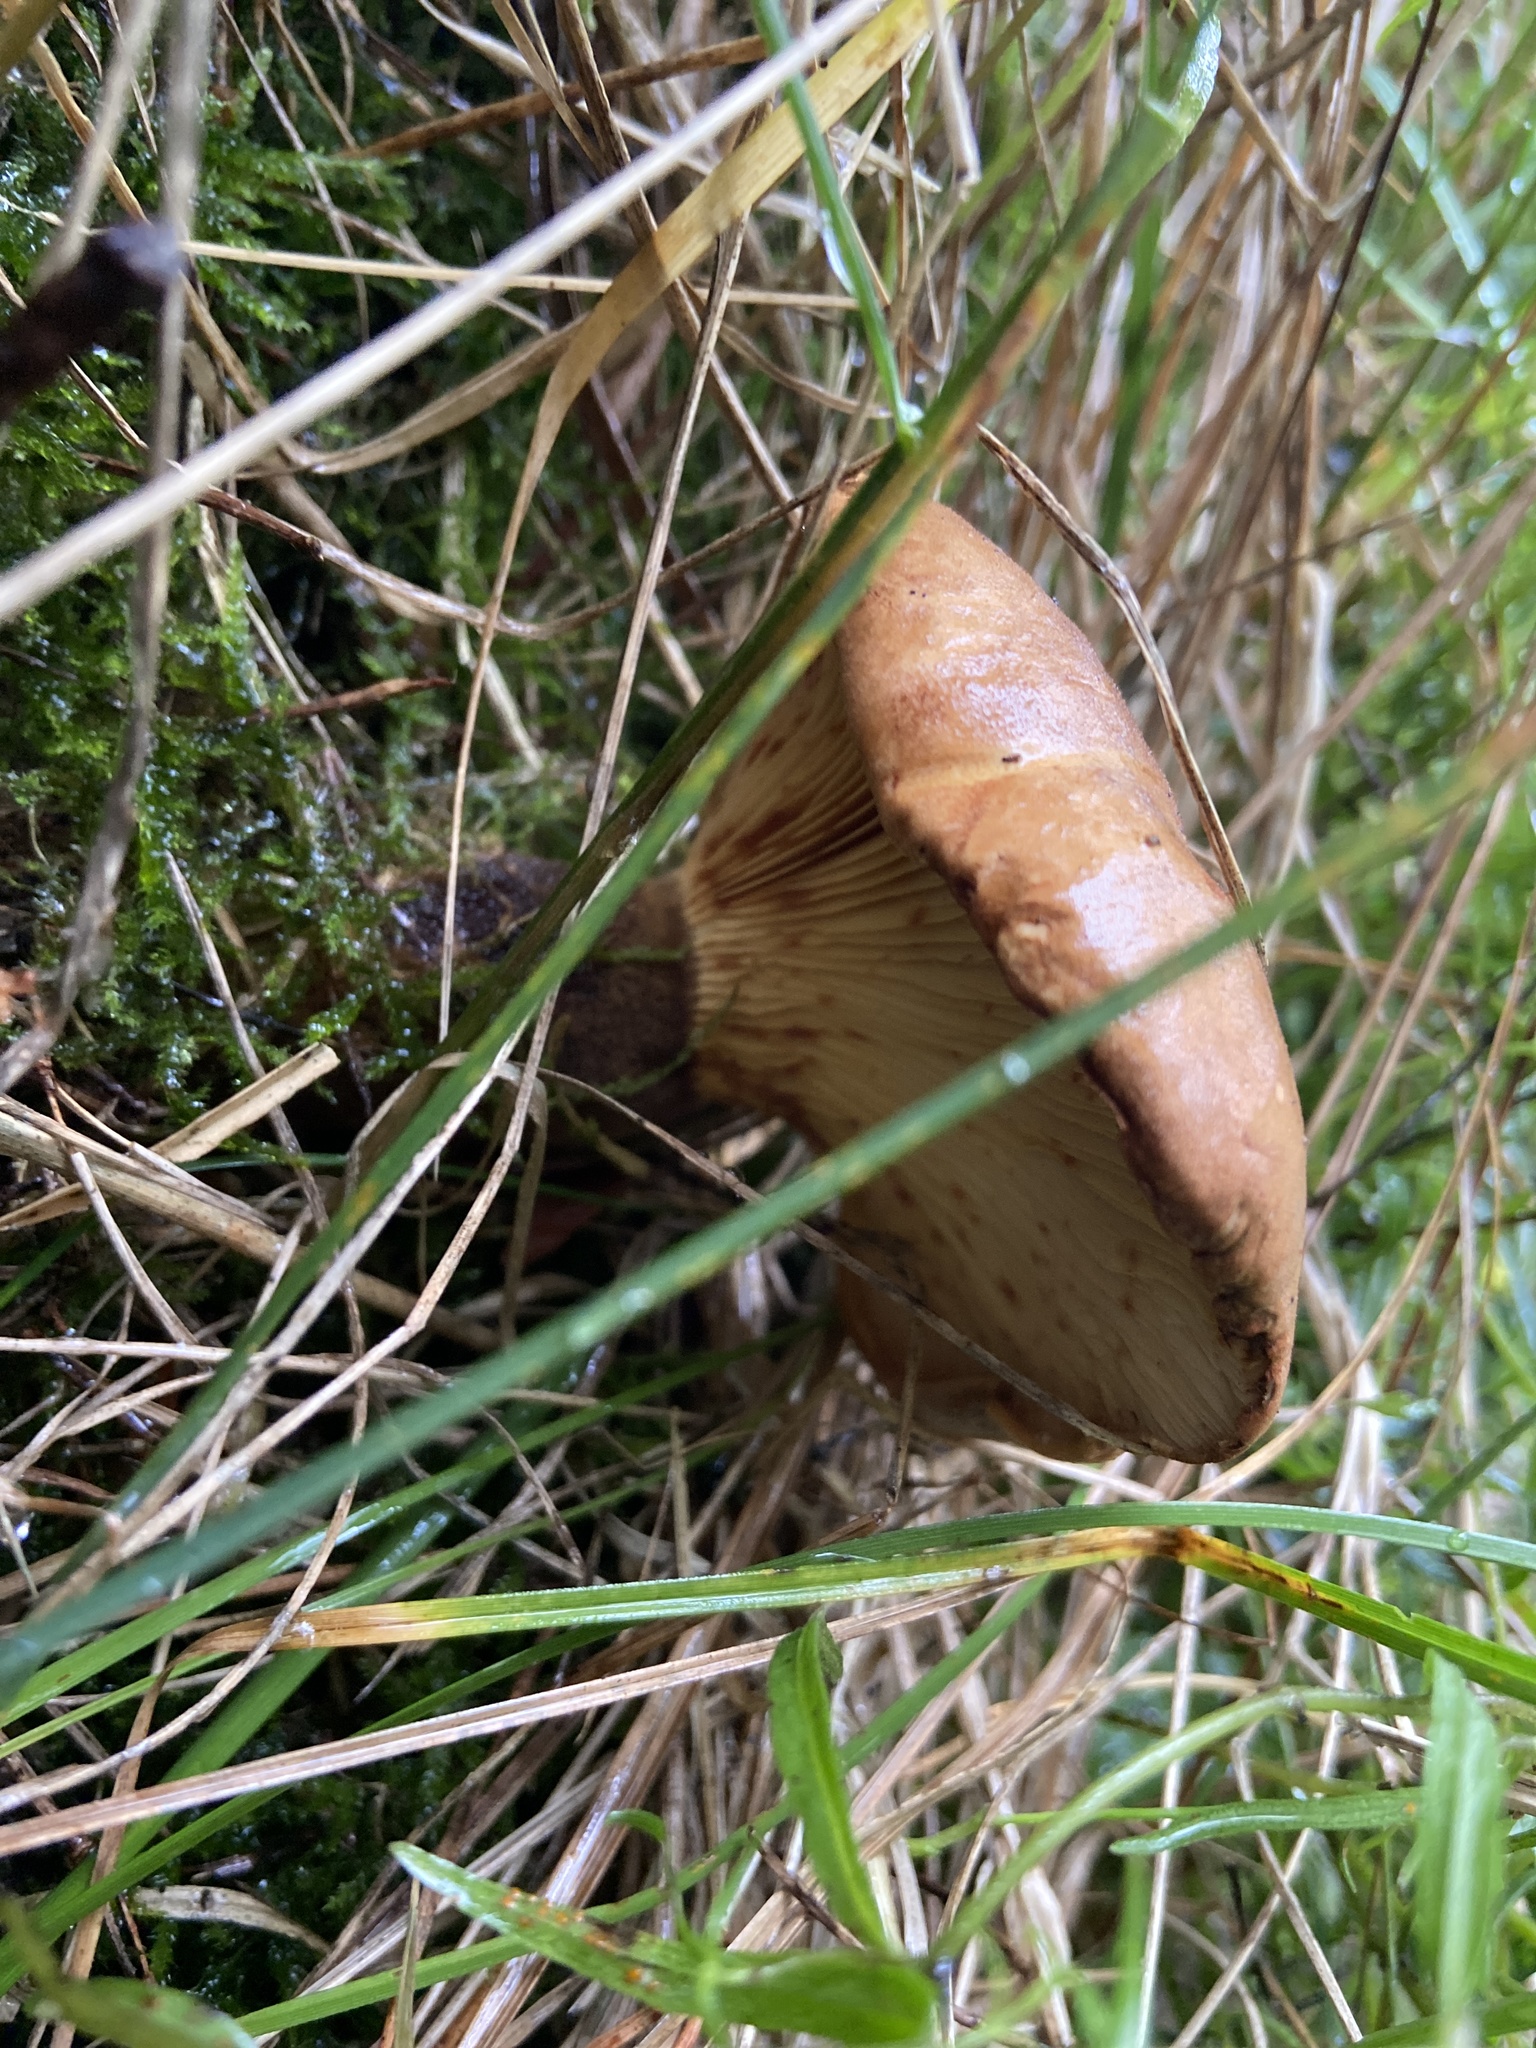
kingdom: Fungi
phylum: Basidiomycota
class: Agaricomycetes
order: Boletales
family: Tapinellaceae
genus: Tapinella
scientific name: Tapinella atrotomentosa
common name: Velvet rollrim
